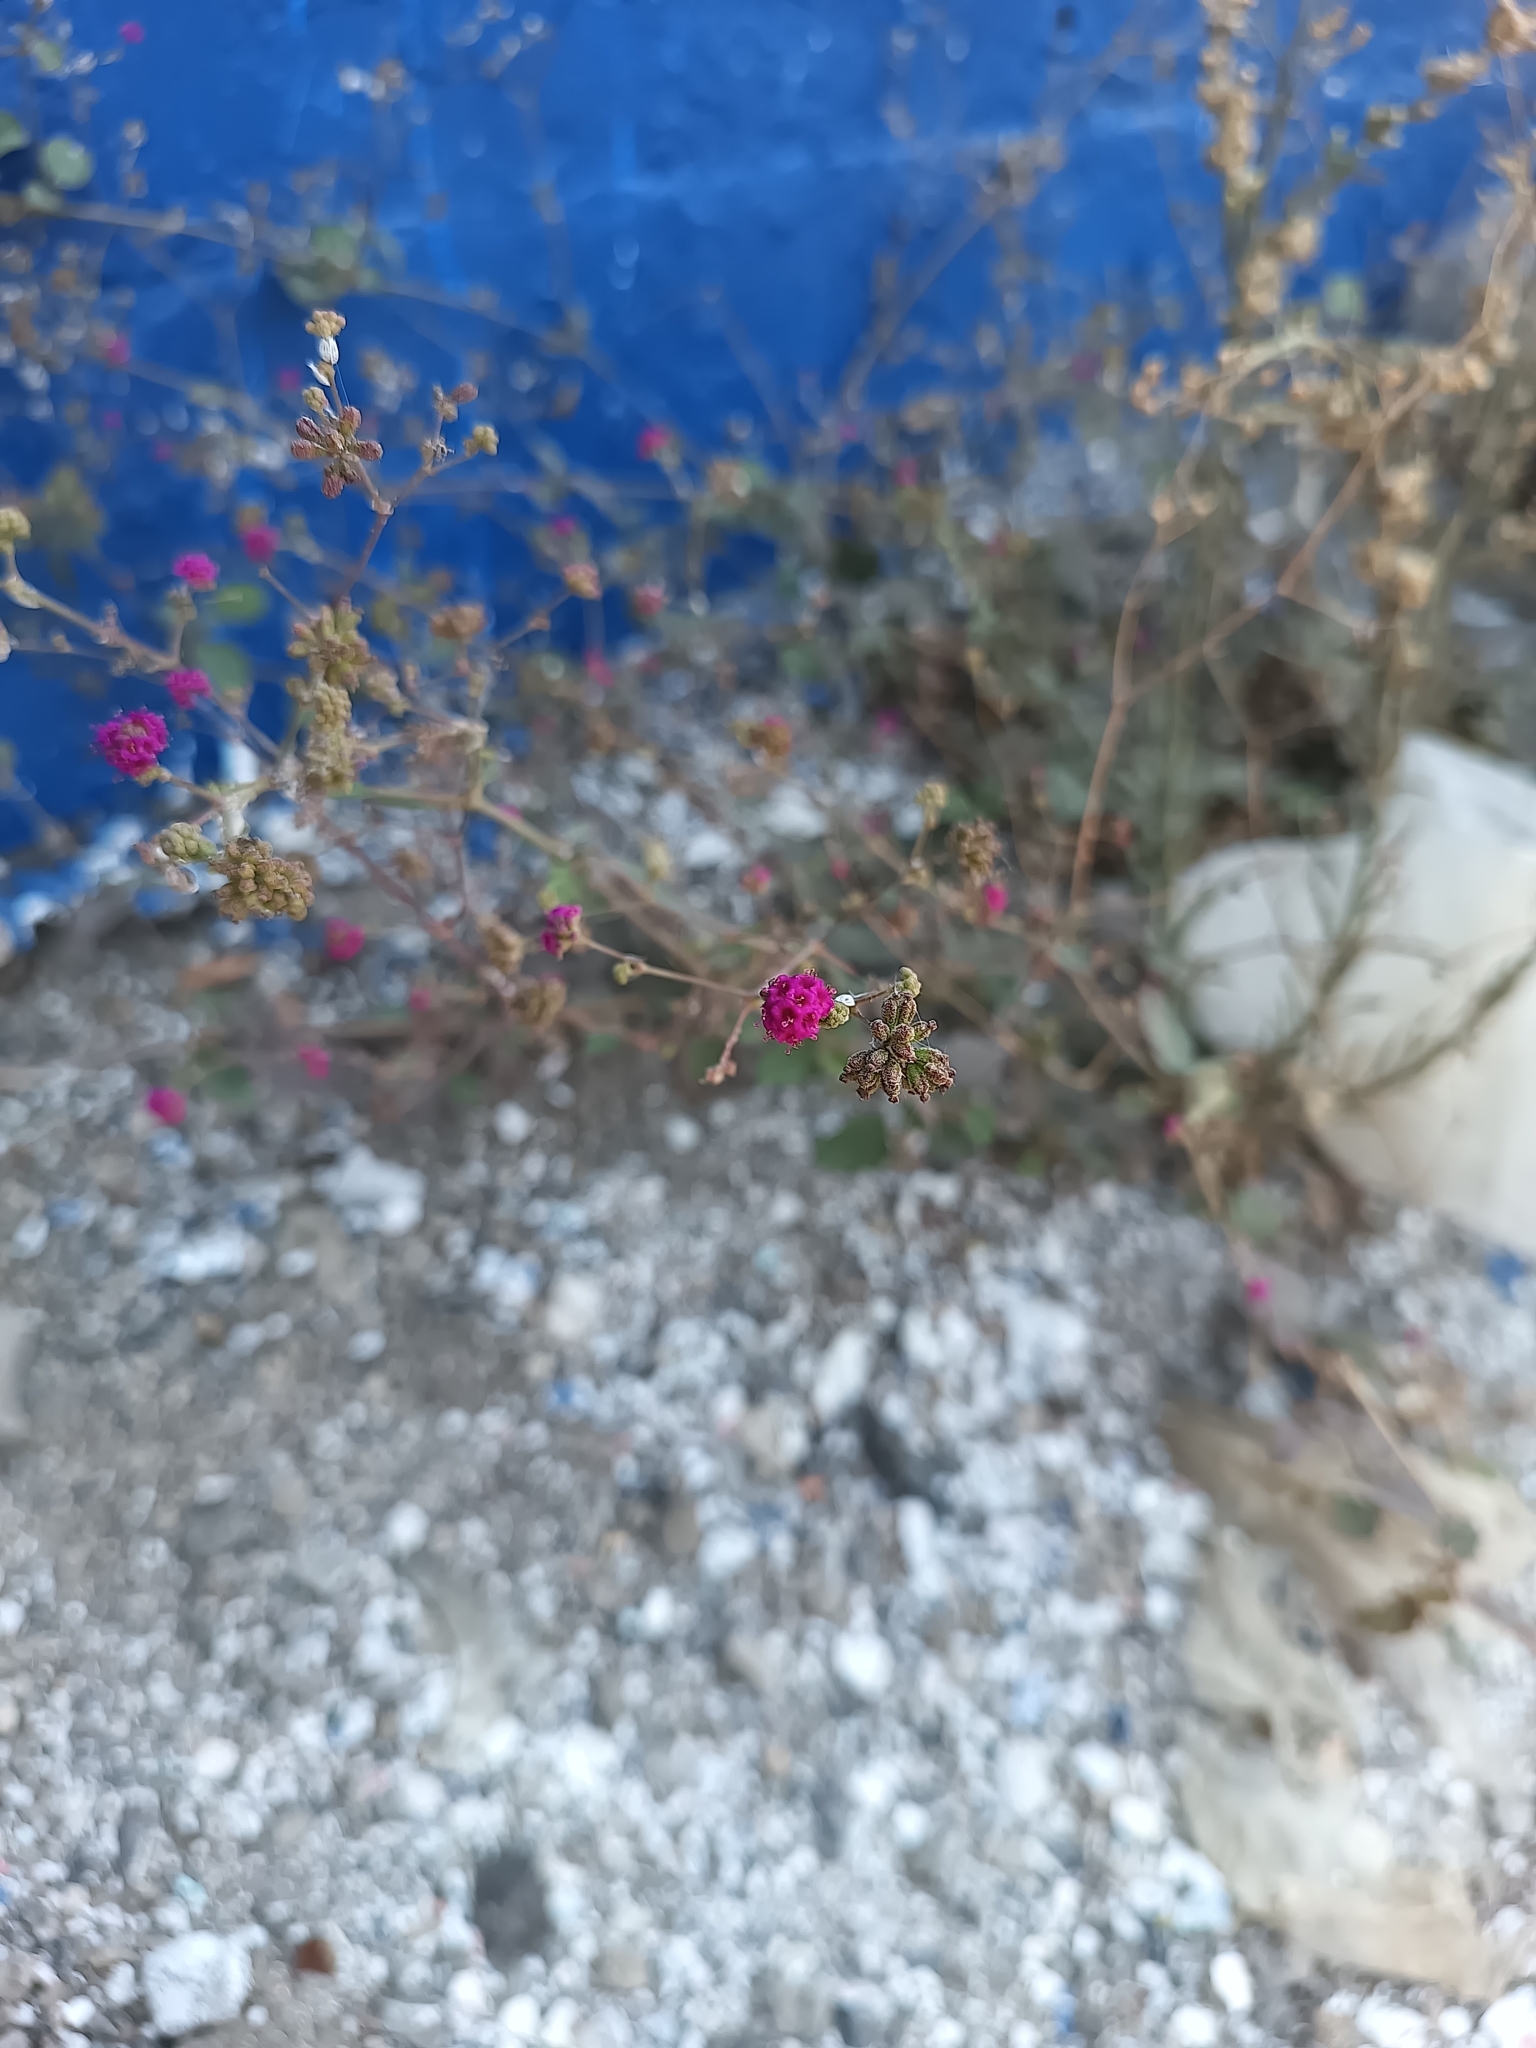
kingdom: Plantae
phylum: Tracheophyta
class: Magnoliopsida
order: Caryophyllales
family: Nyctaginaceae
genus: Boerhavia
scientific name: Boerhavia coccinea
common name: Scarlet spiderling
